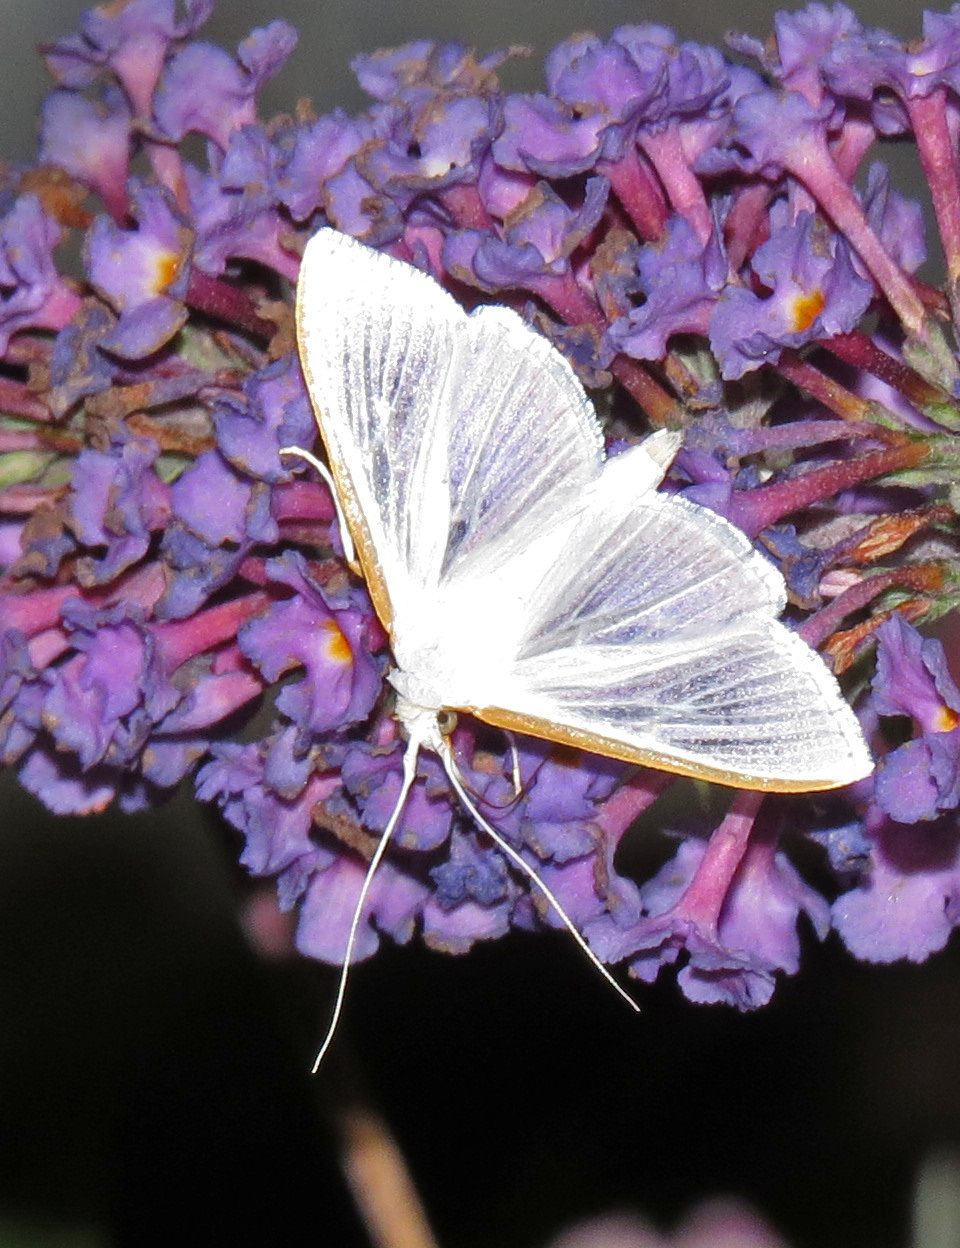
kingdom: Animalia
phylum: Arthropoda
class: Insecta
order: Lepidoptera
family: Crambidae
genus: Diaphania
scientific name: Diaphania costata
